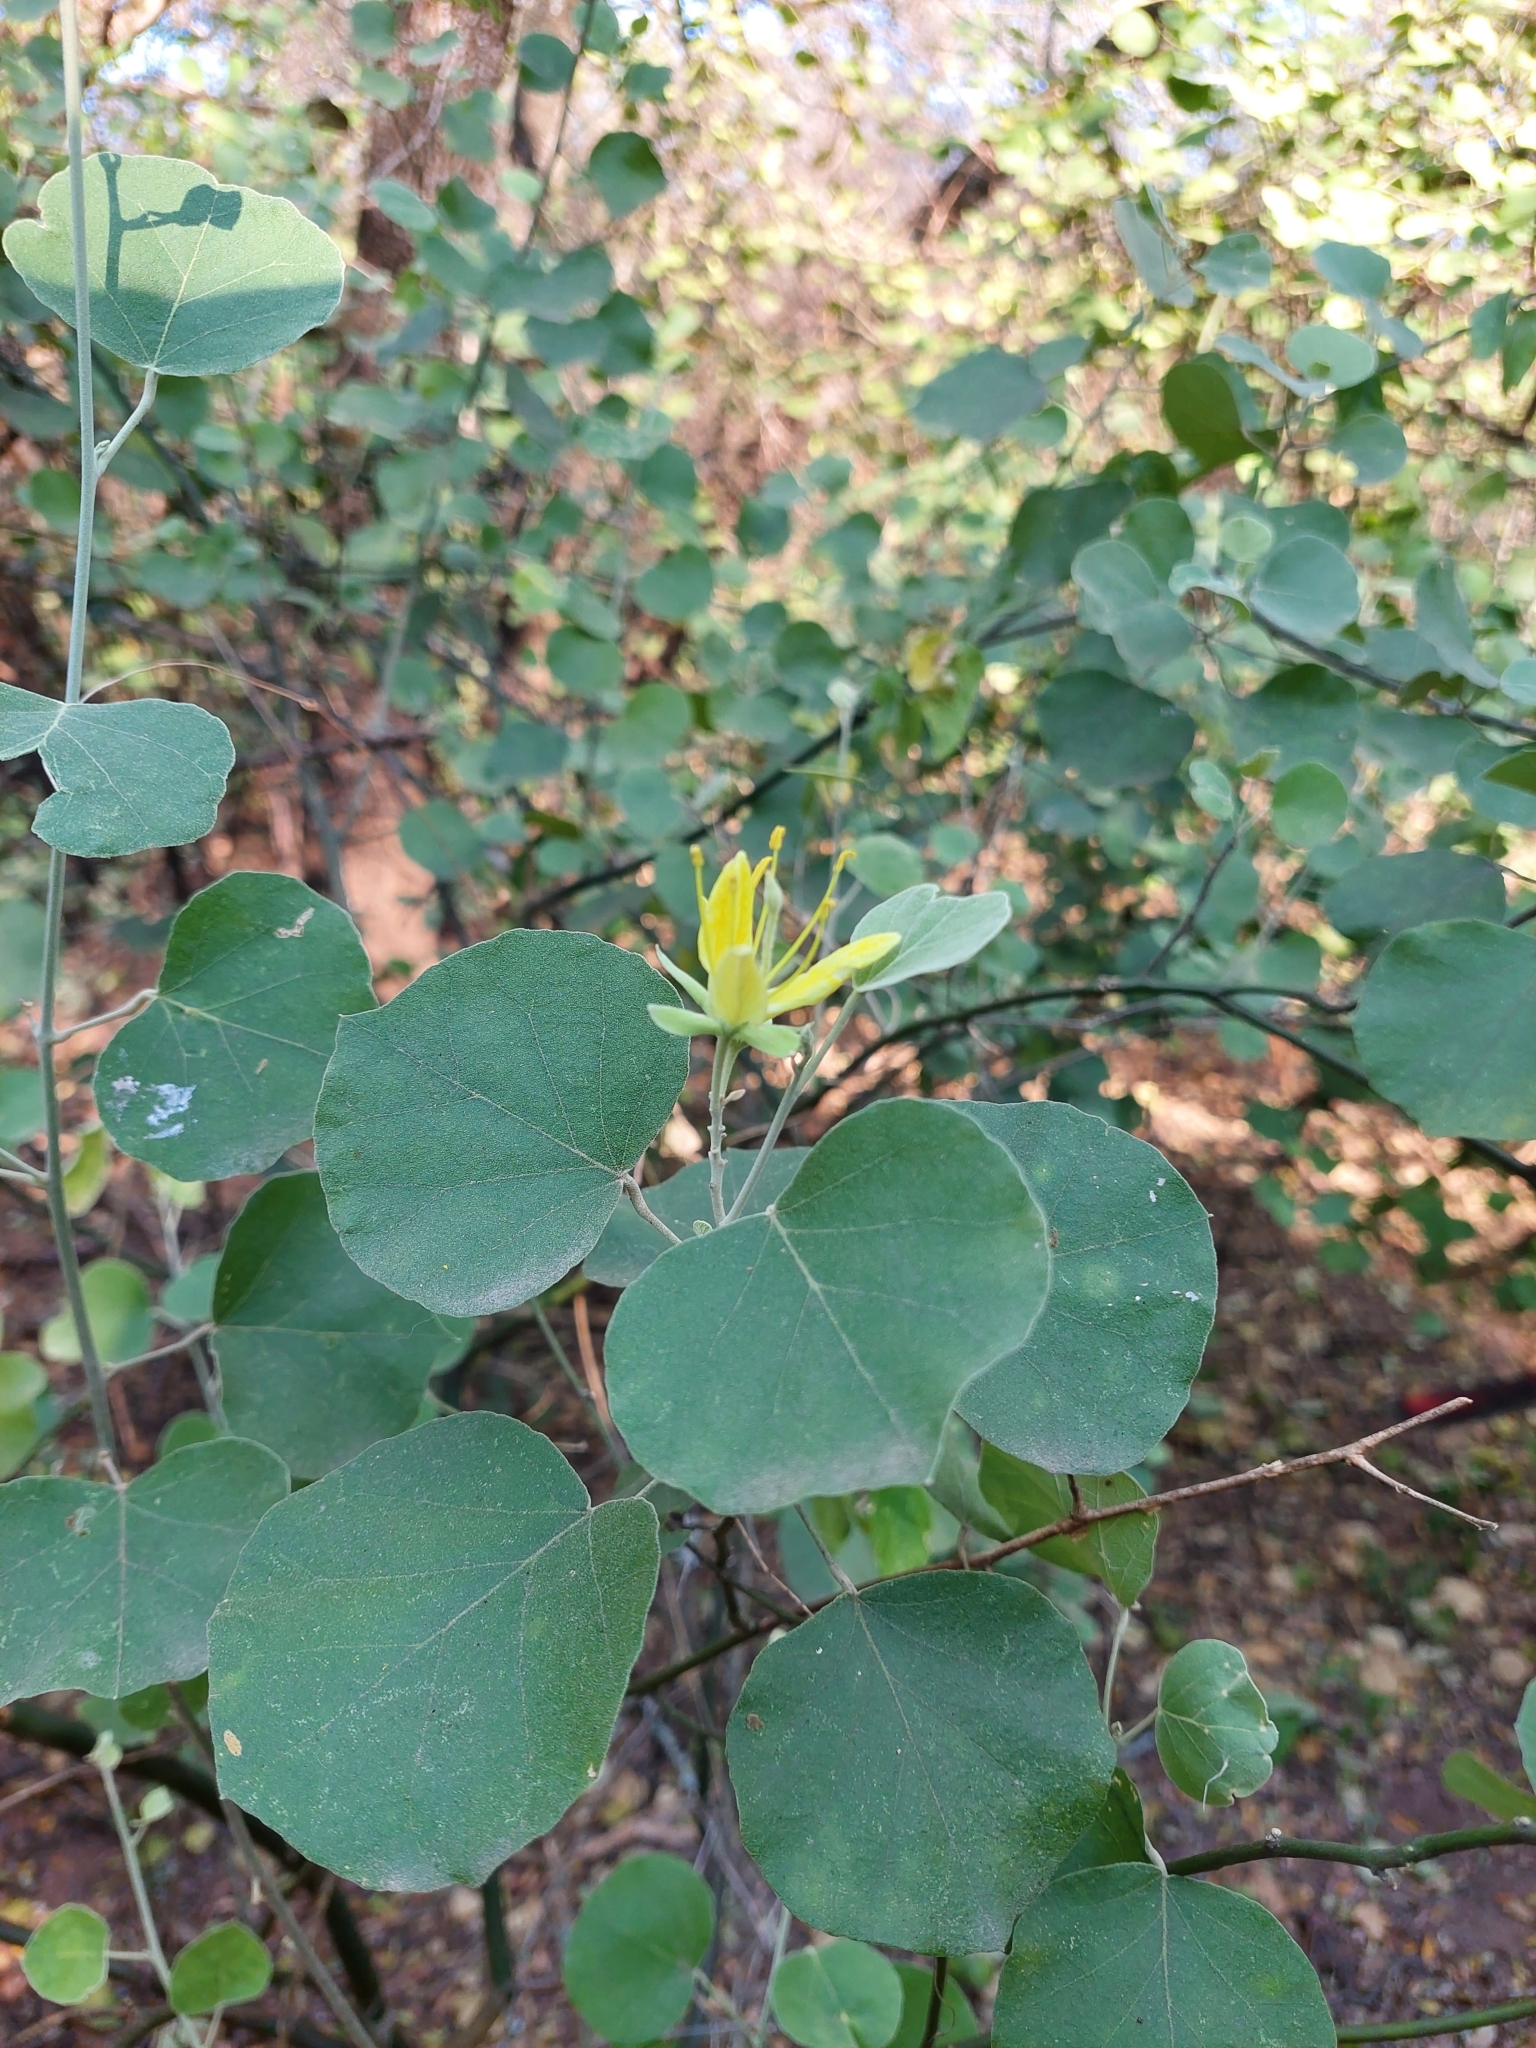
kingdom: Plantae
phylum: Tracheophyta
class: Magnoliopsida
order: Brassicales
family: Capparaceae
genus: Capparicordis
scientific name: Capparicordis tweedieana
